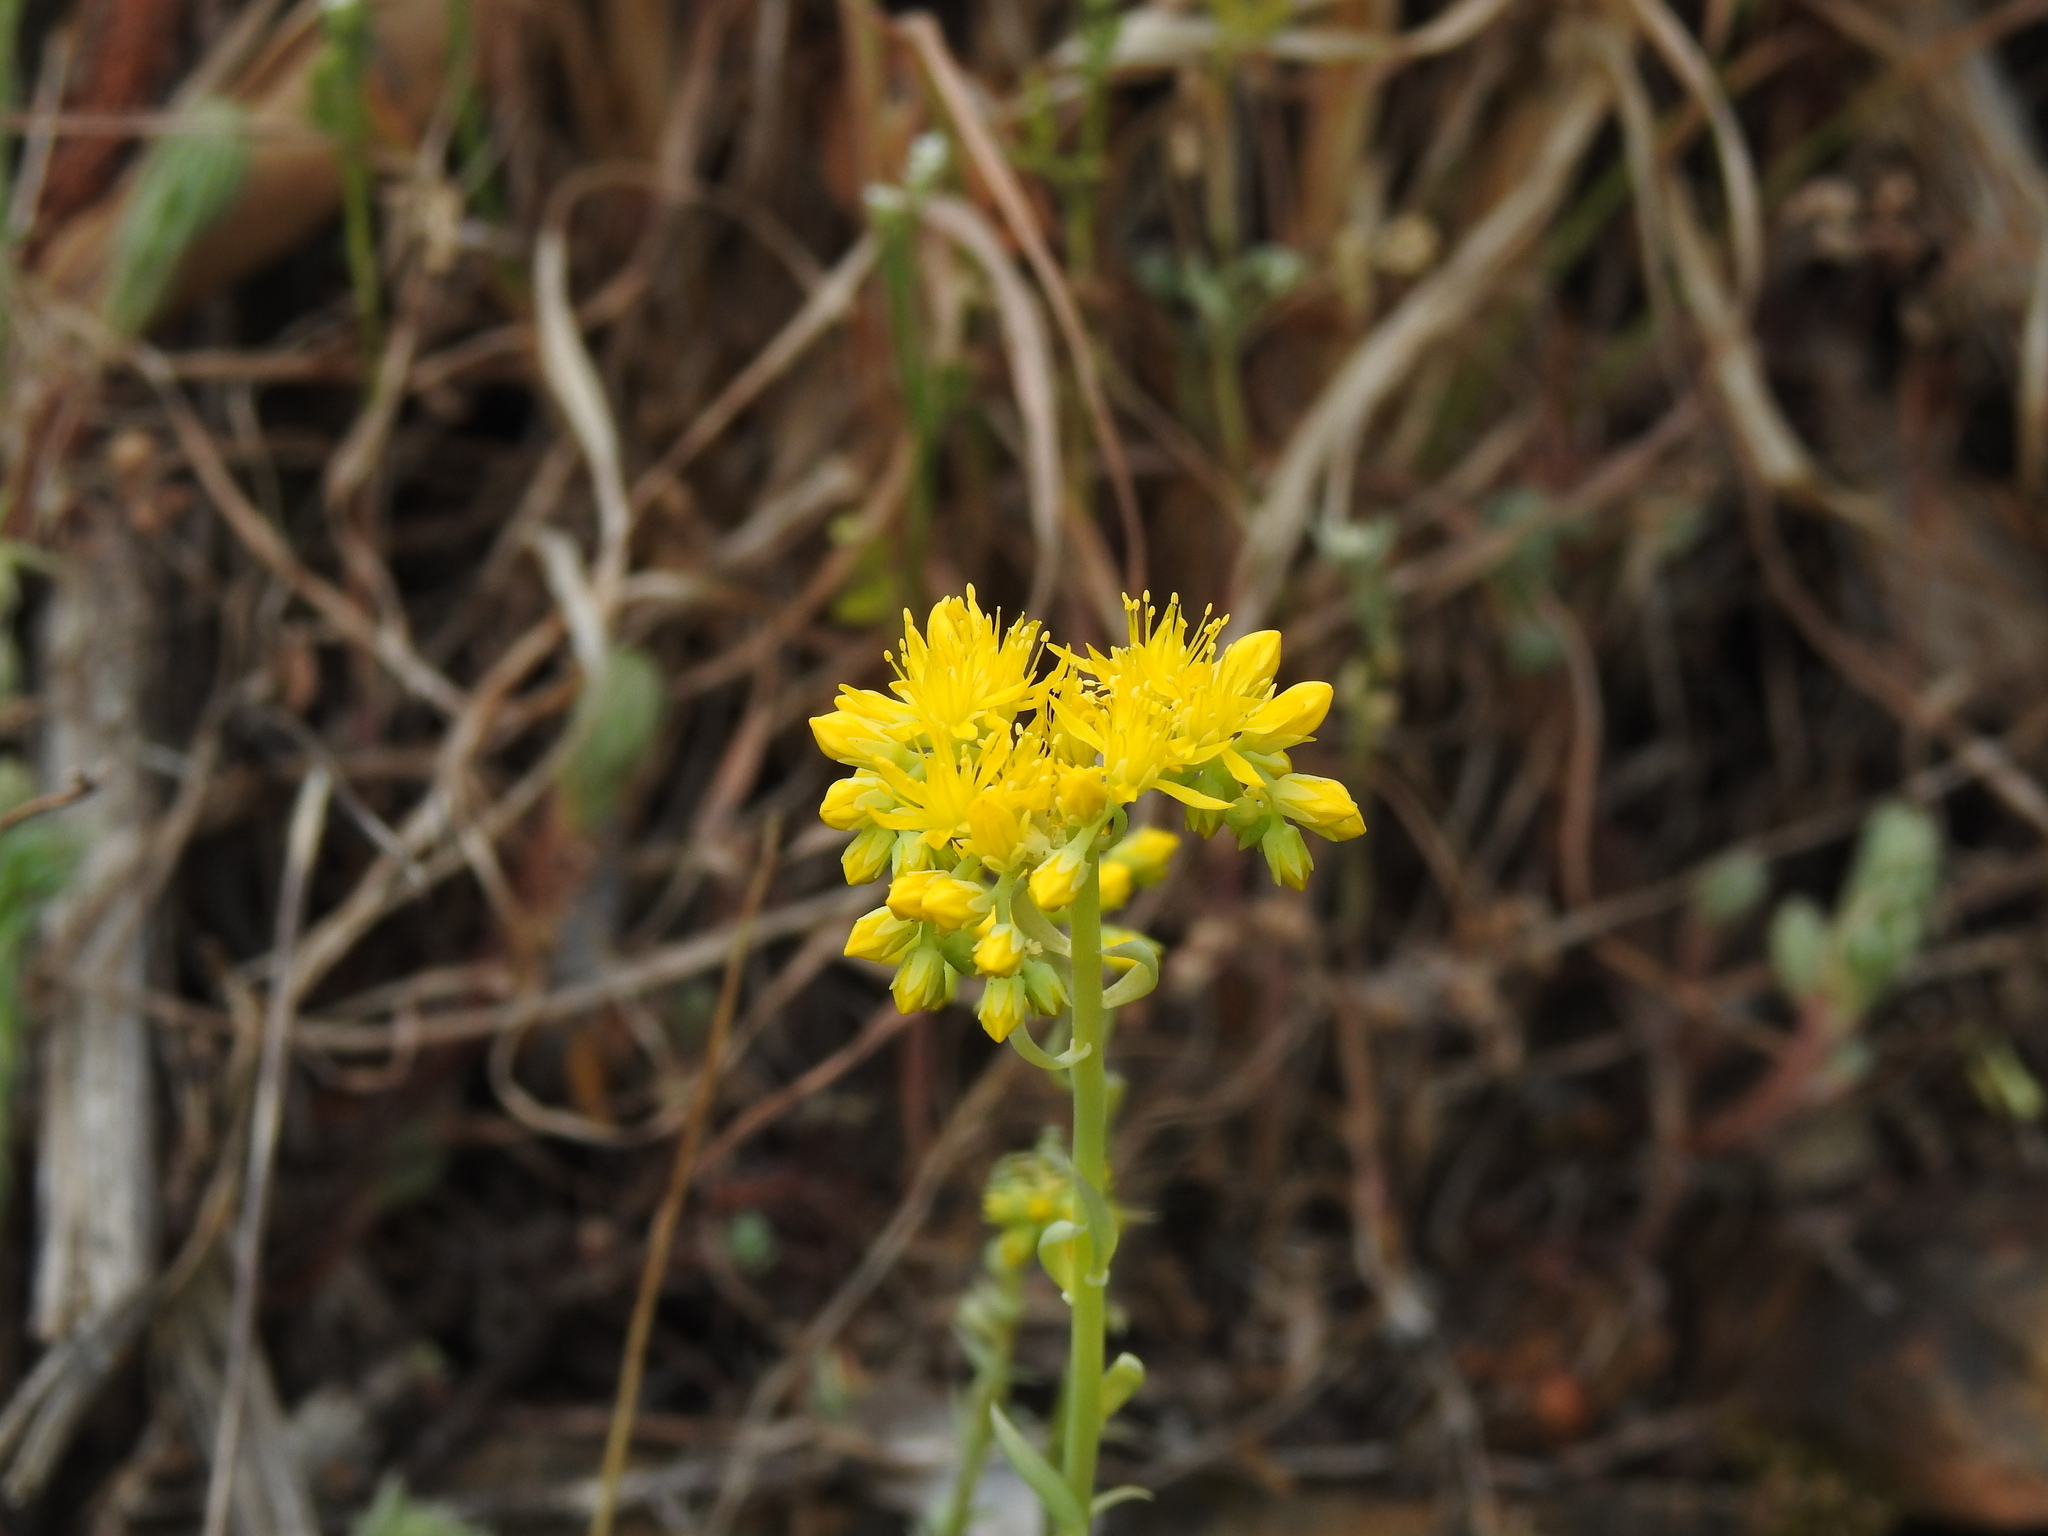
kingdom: Plantae
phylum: Tracheophyta
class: Magnoliopsida
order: Saxifragales
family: Crassulaceae
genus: Petrosedum
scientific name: Petrosedum forsterianum
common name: Forster's stonecrop
